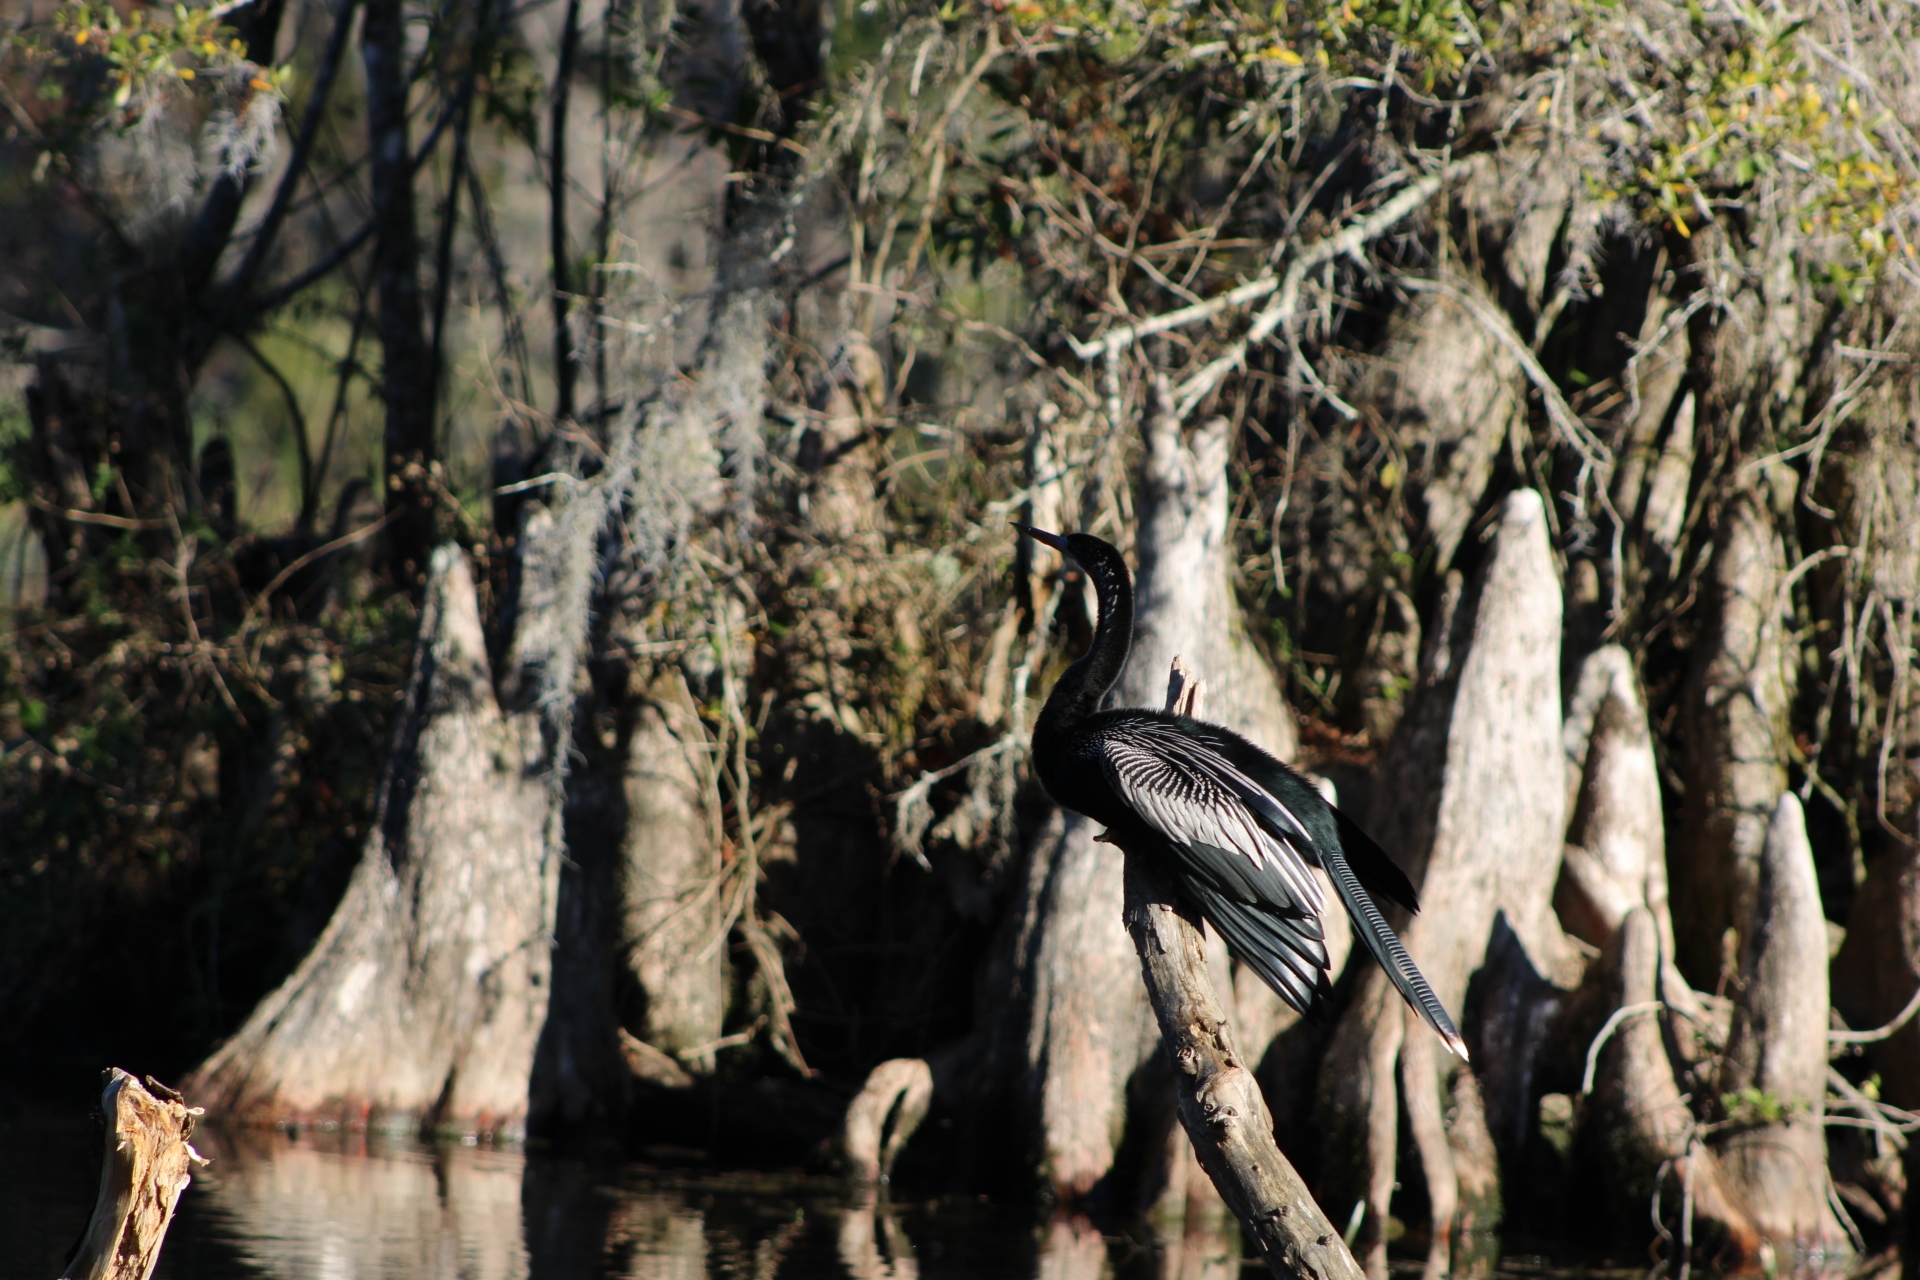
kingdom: Animalia
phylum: Chordata
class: Aves
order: Suliformes
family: Anhingidae
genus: Anhinga
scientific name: Anhinga anhinga
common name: Anhinga
